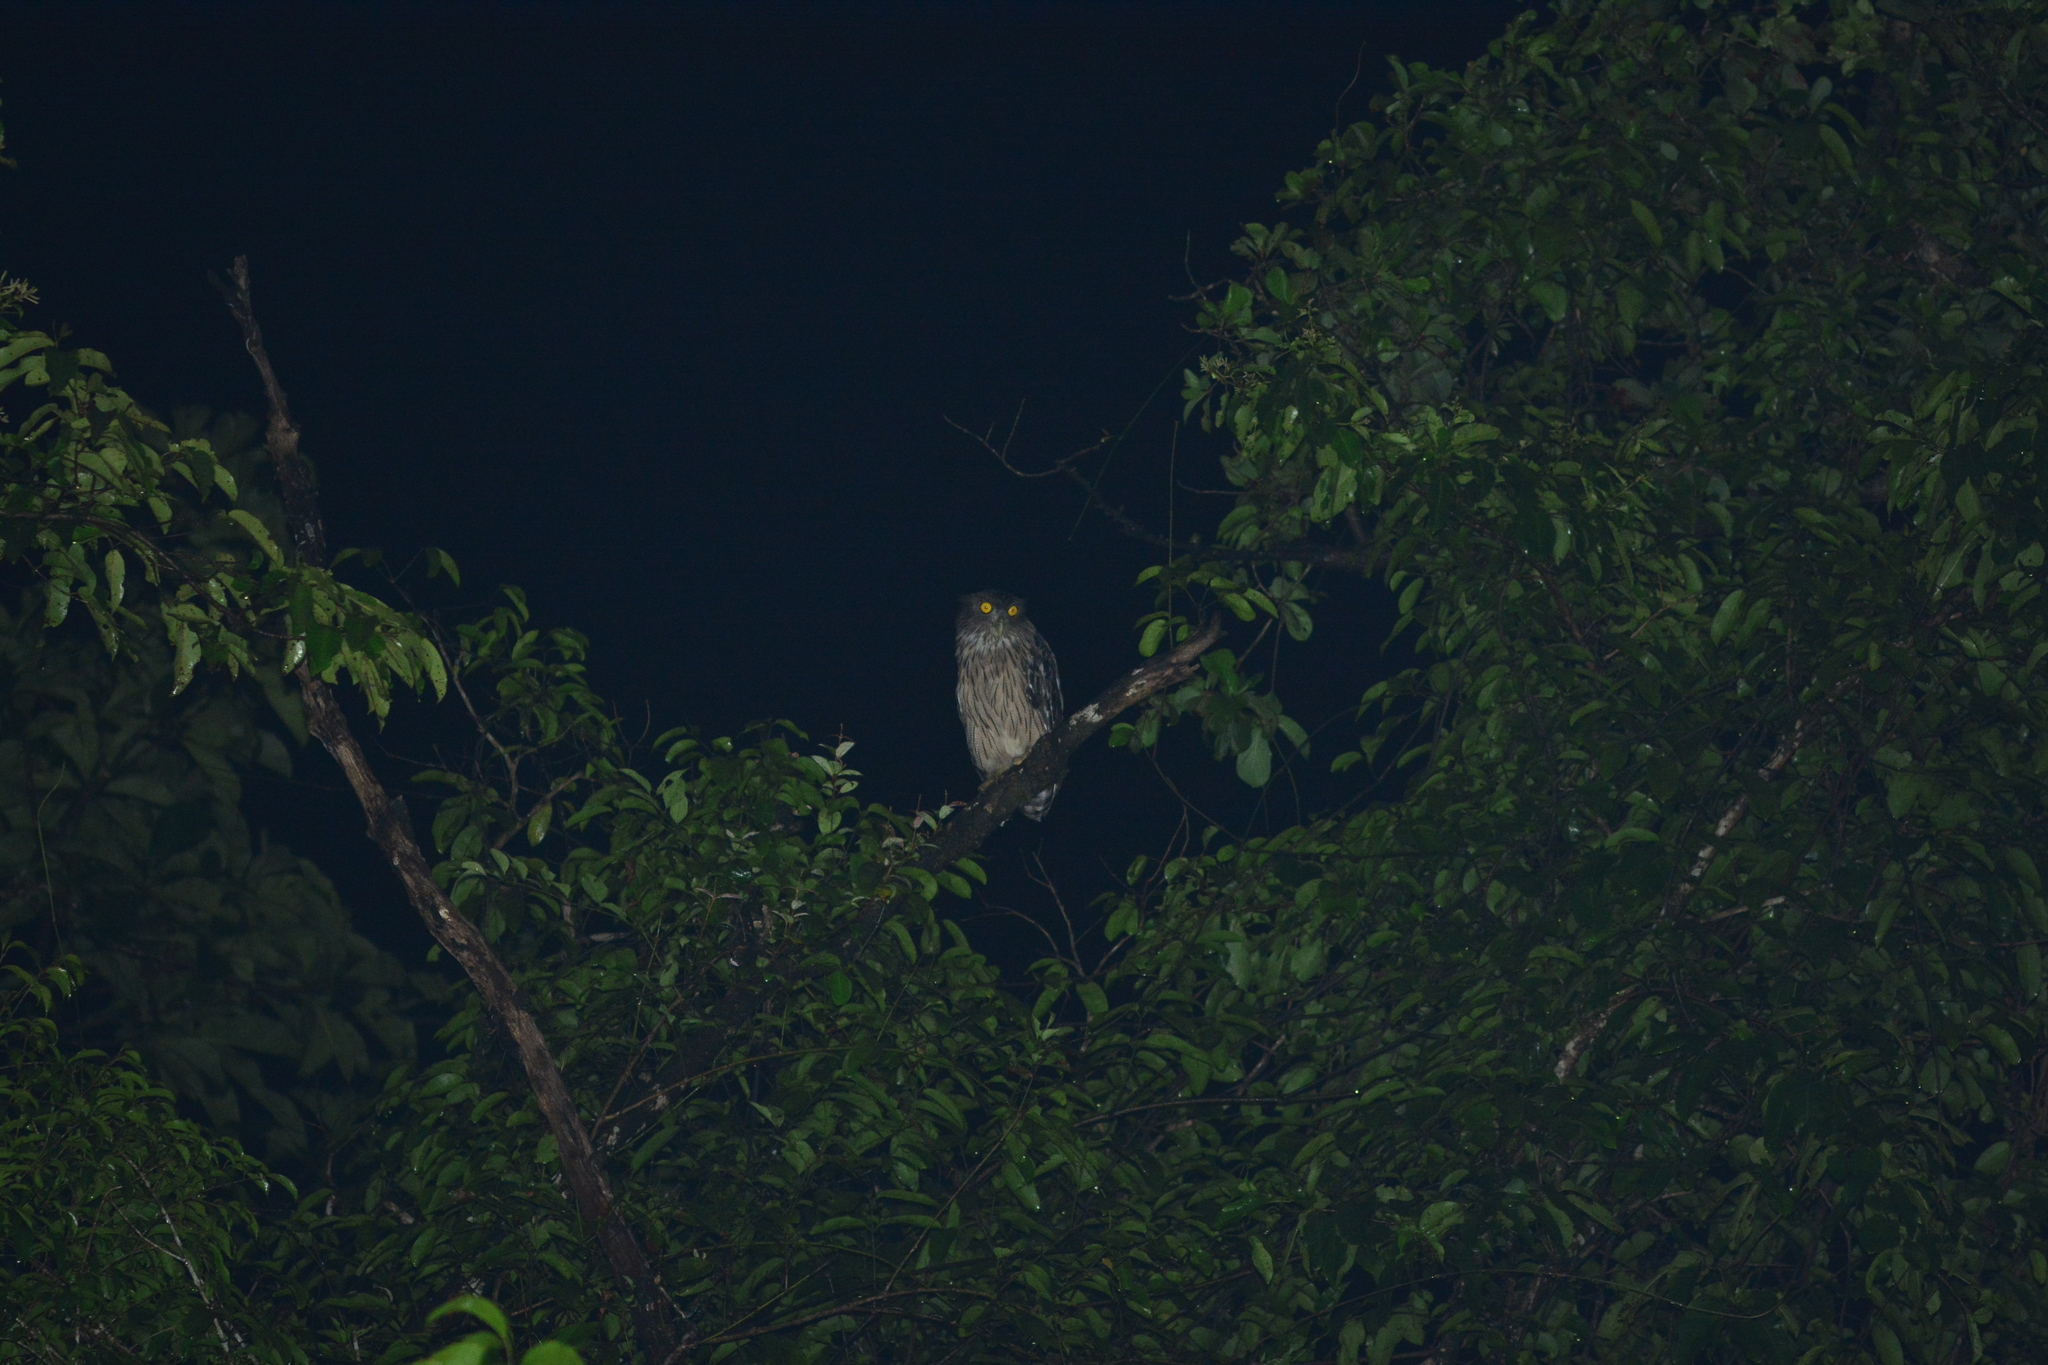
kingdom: Animalia
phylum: Chordata
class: Aves
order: Strigiformes
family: Strigidae
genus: Ketupa
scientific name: Ketupa zeylonensis
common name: Brown fish owl
